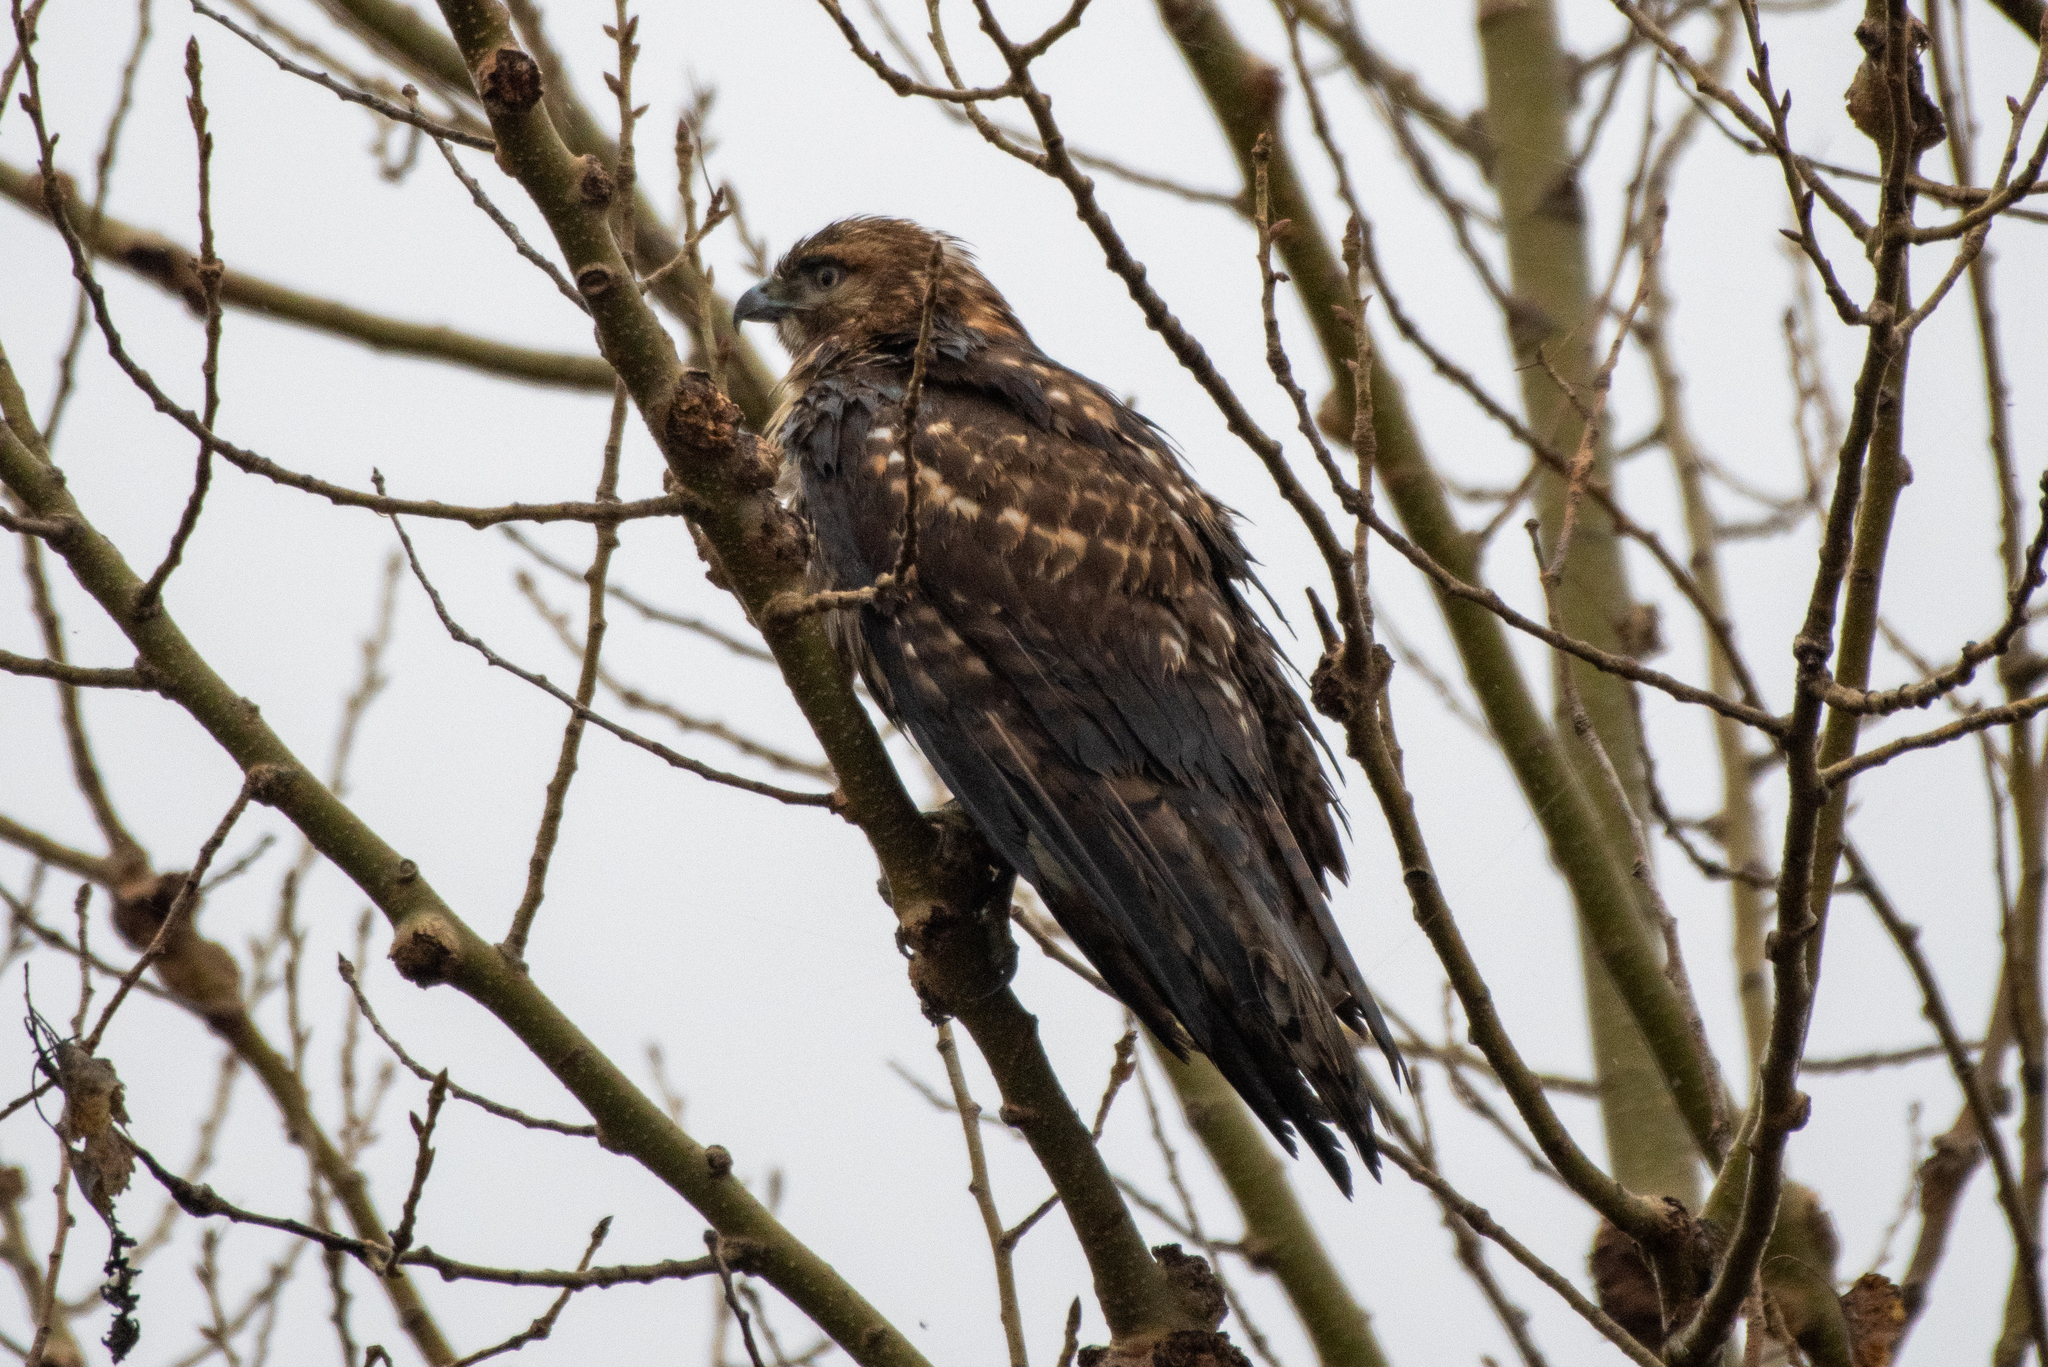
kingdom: Animalia
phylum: Chordata
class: Aves
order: Accipitriformes
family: Accipitridae
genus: Buteo
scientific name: Buteo jamaicensis
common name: Red-tailed hawk
